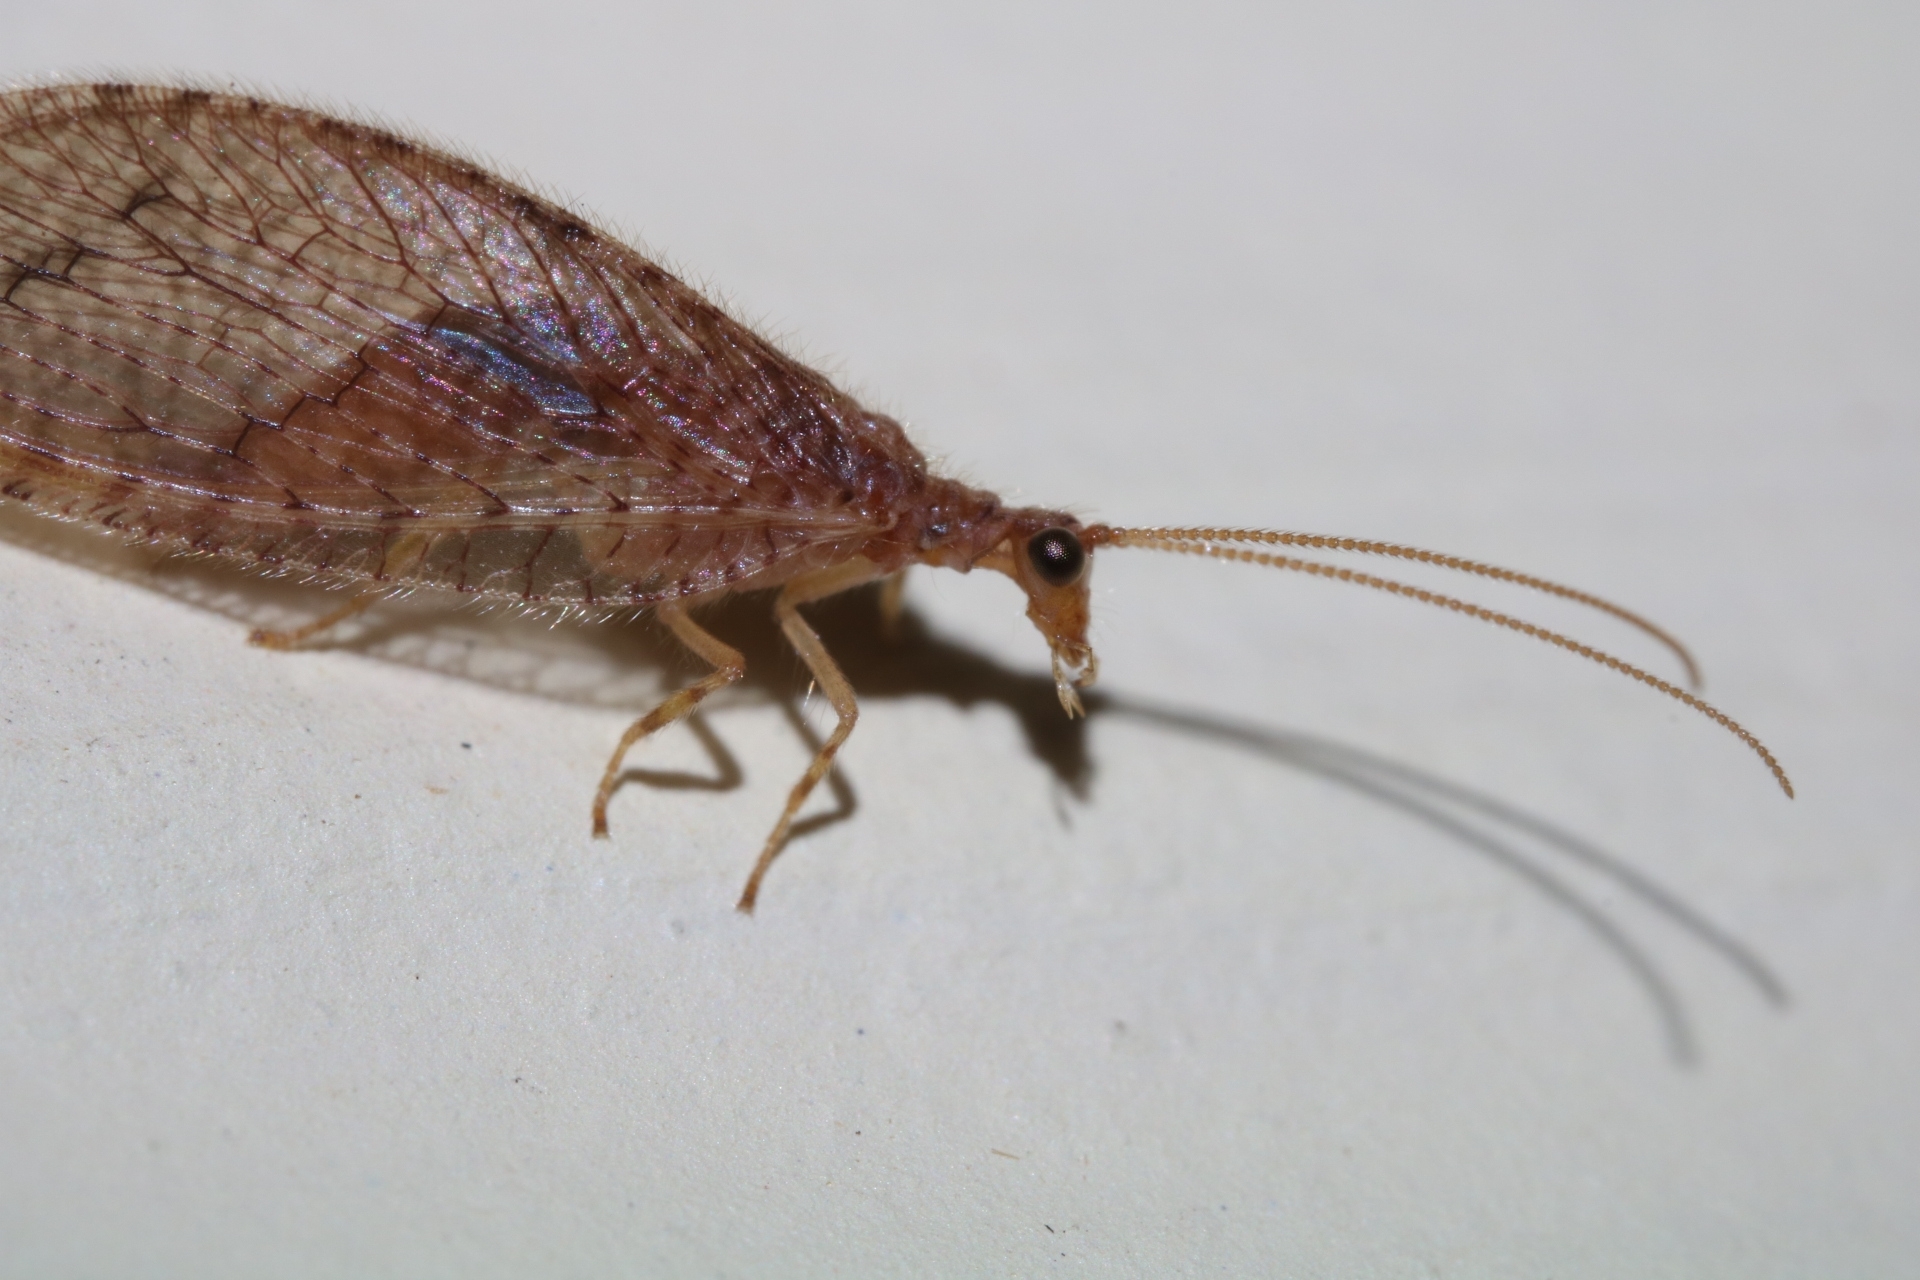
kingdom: Animalia
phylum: Arthropoda
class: Insecta
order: Neuroptera
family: Hemerobiidae
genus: Micromus
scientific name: Micromus posticus
